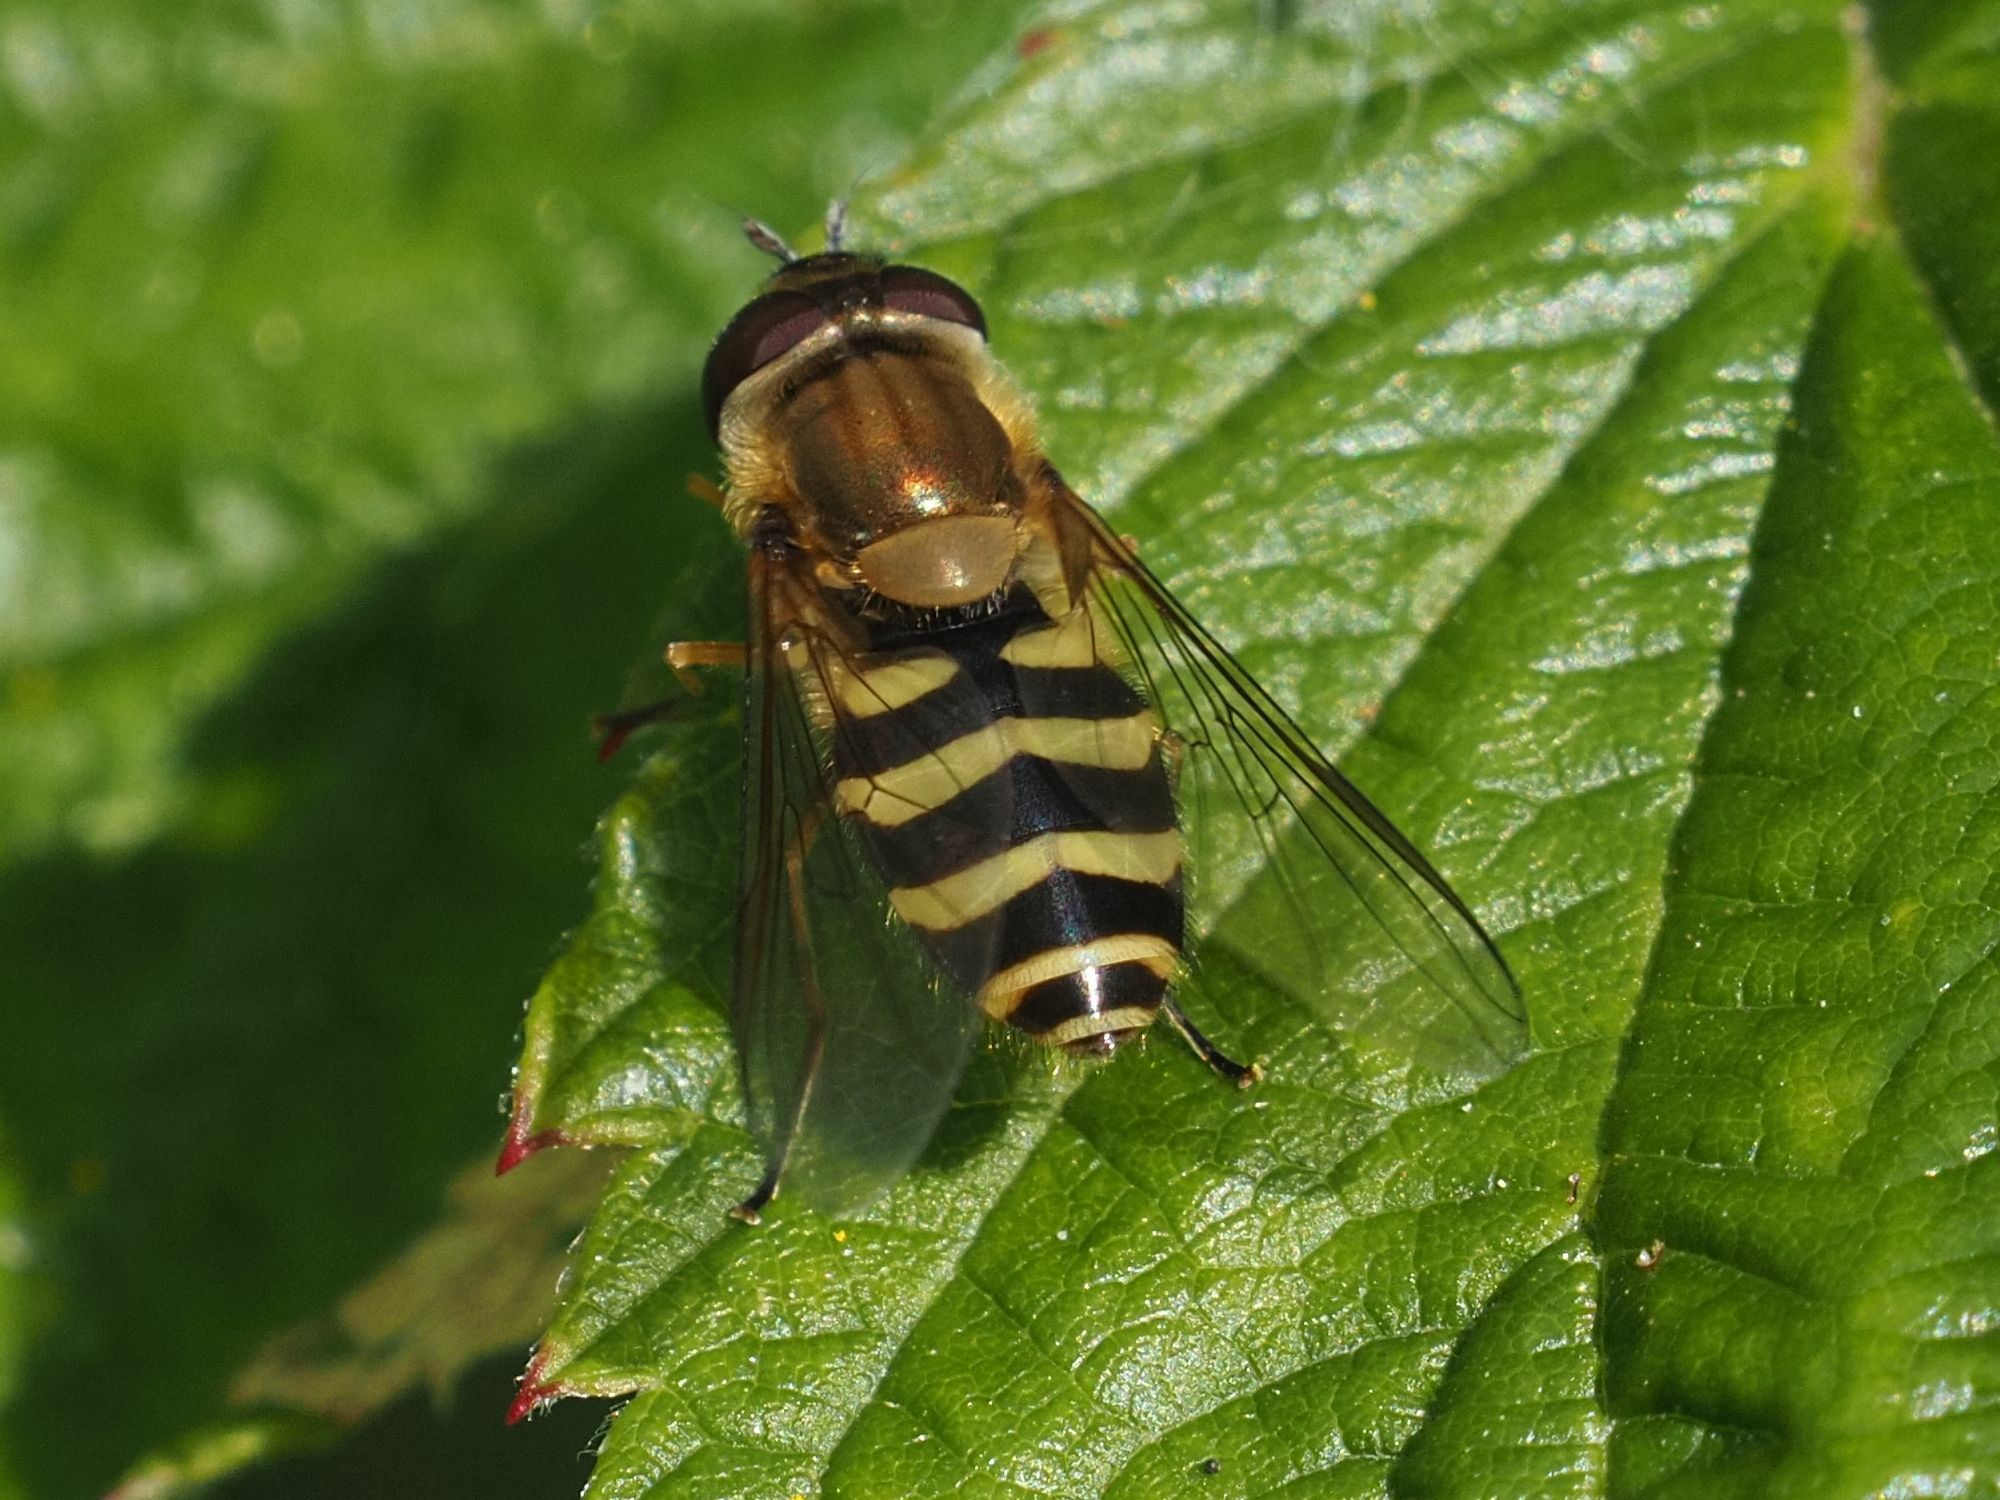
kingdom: Animalia
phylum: Arthropoda
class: Insecta
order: Diptera
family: Syrphidae
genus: Syrphus
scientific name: Syrphus torvus
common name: Hairy-eyed flower fly
